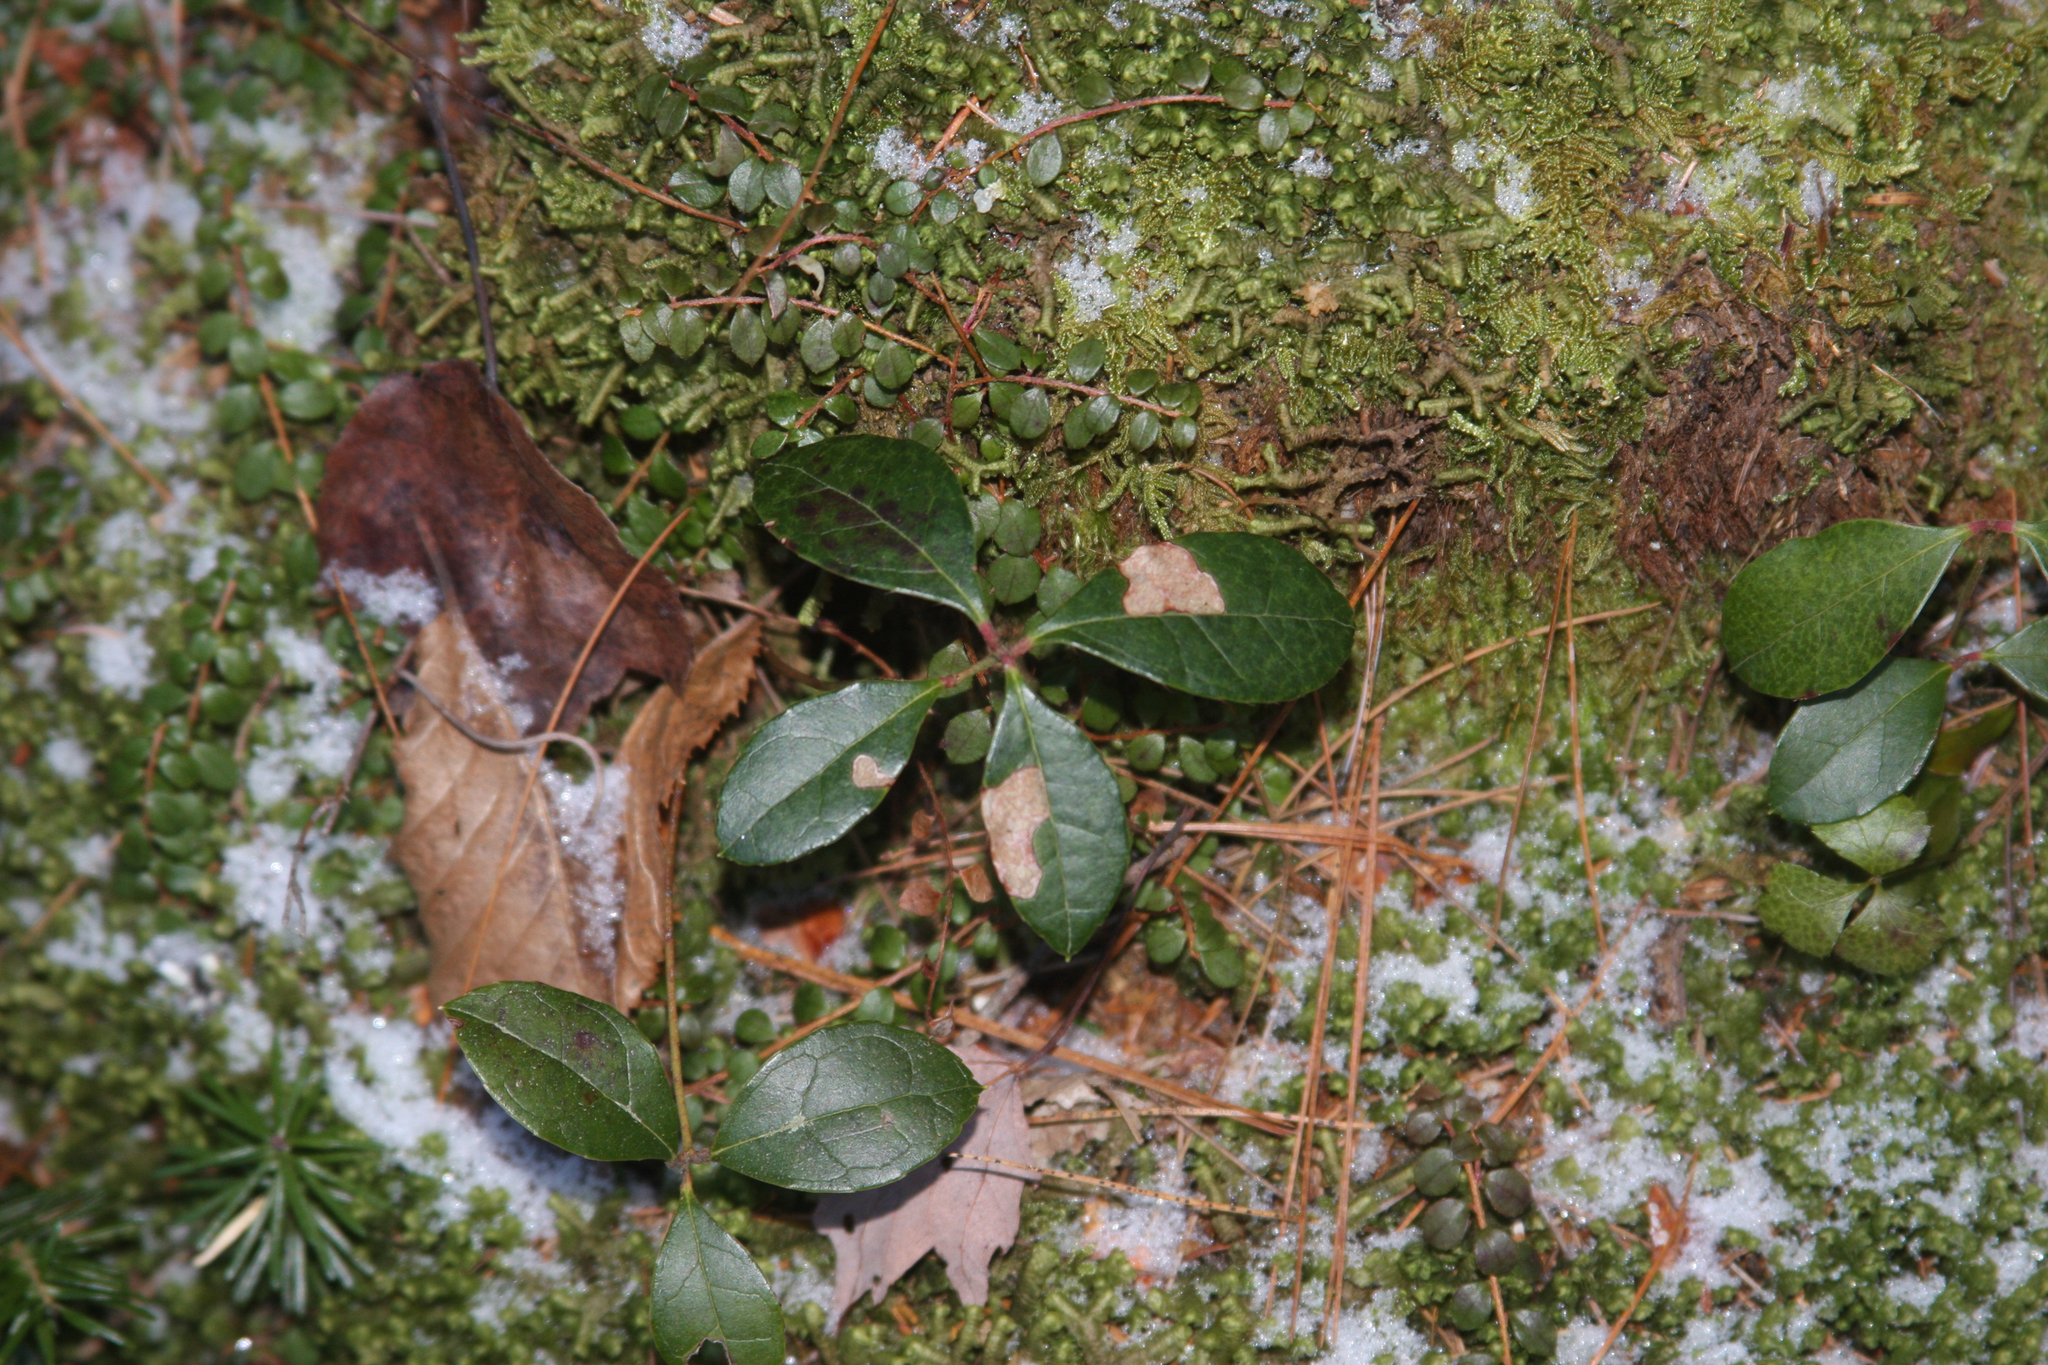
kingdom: Plantae
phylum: Tracheophyta
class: Magnoliopsida
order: Ericales
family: Ericaceae
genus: Gaultheria
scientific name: Gaultheria procumbens
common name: Checkerberry
